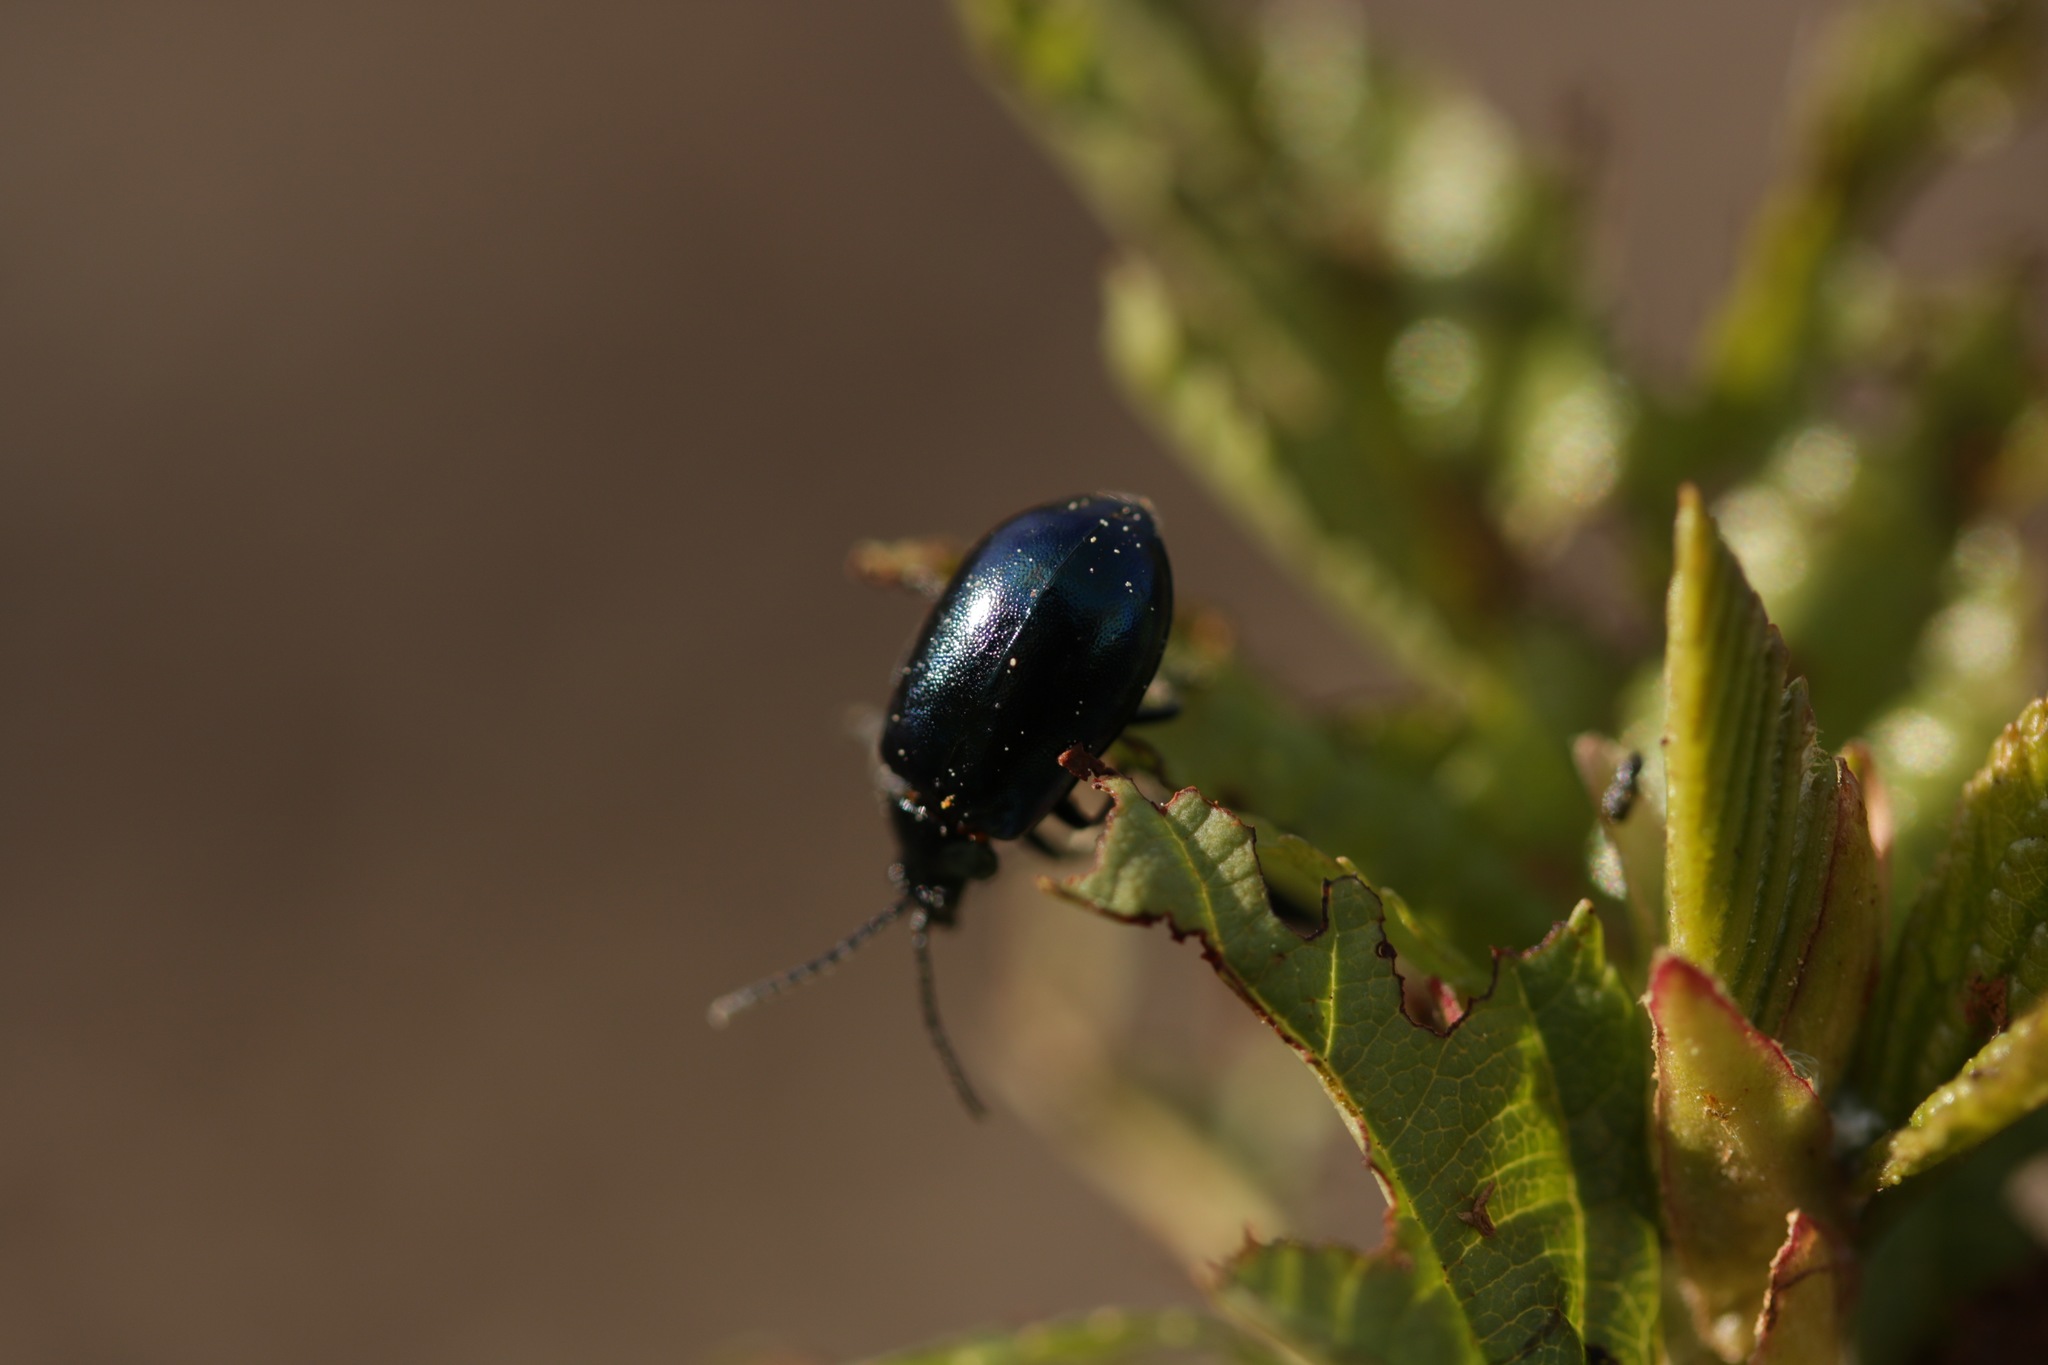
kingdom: Animalia
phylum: Arthropoda
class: Insecta
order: Coleoptera
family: Chrysomelidae
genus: Agelastica
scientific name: Agelastica alni
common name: Alder leaf beetle
